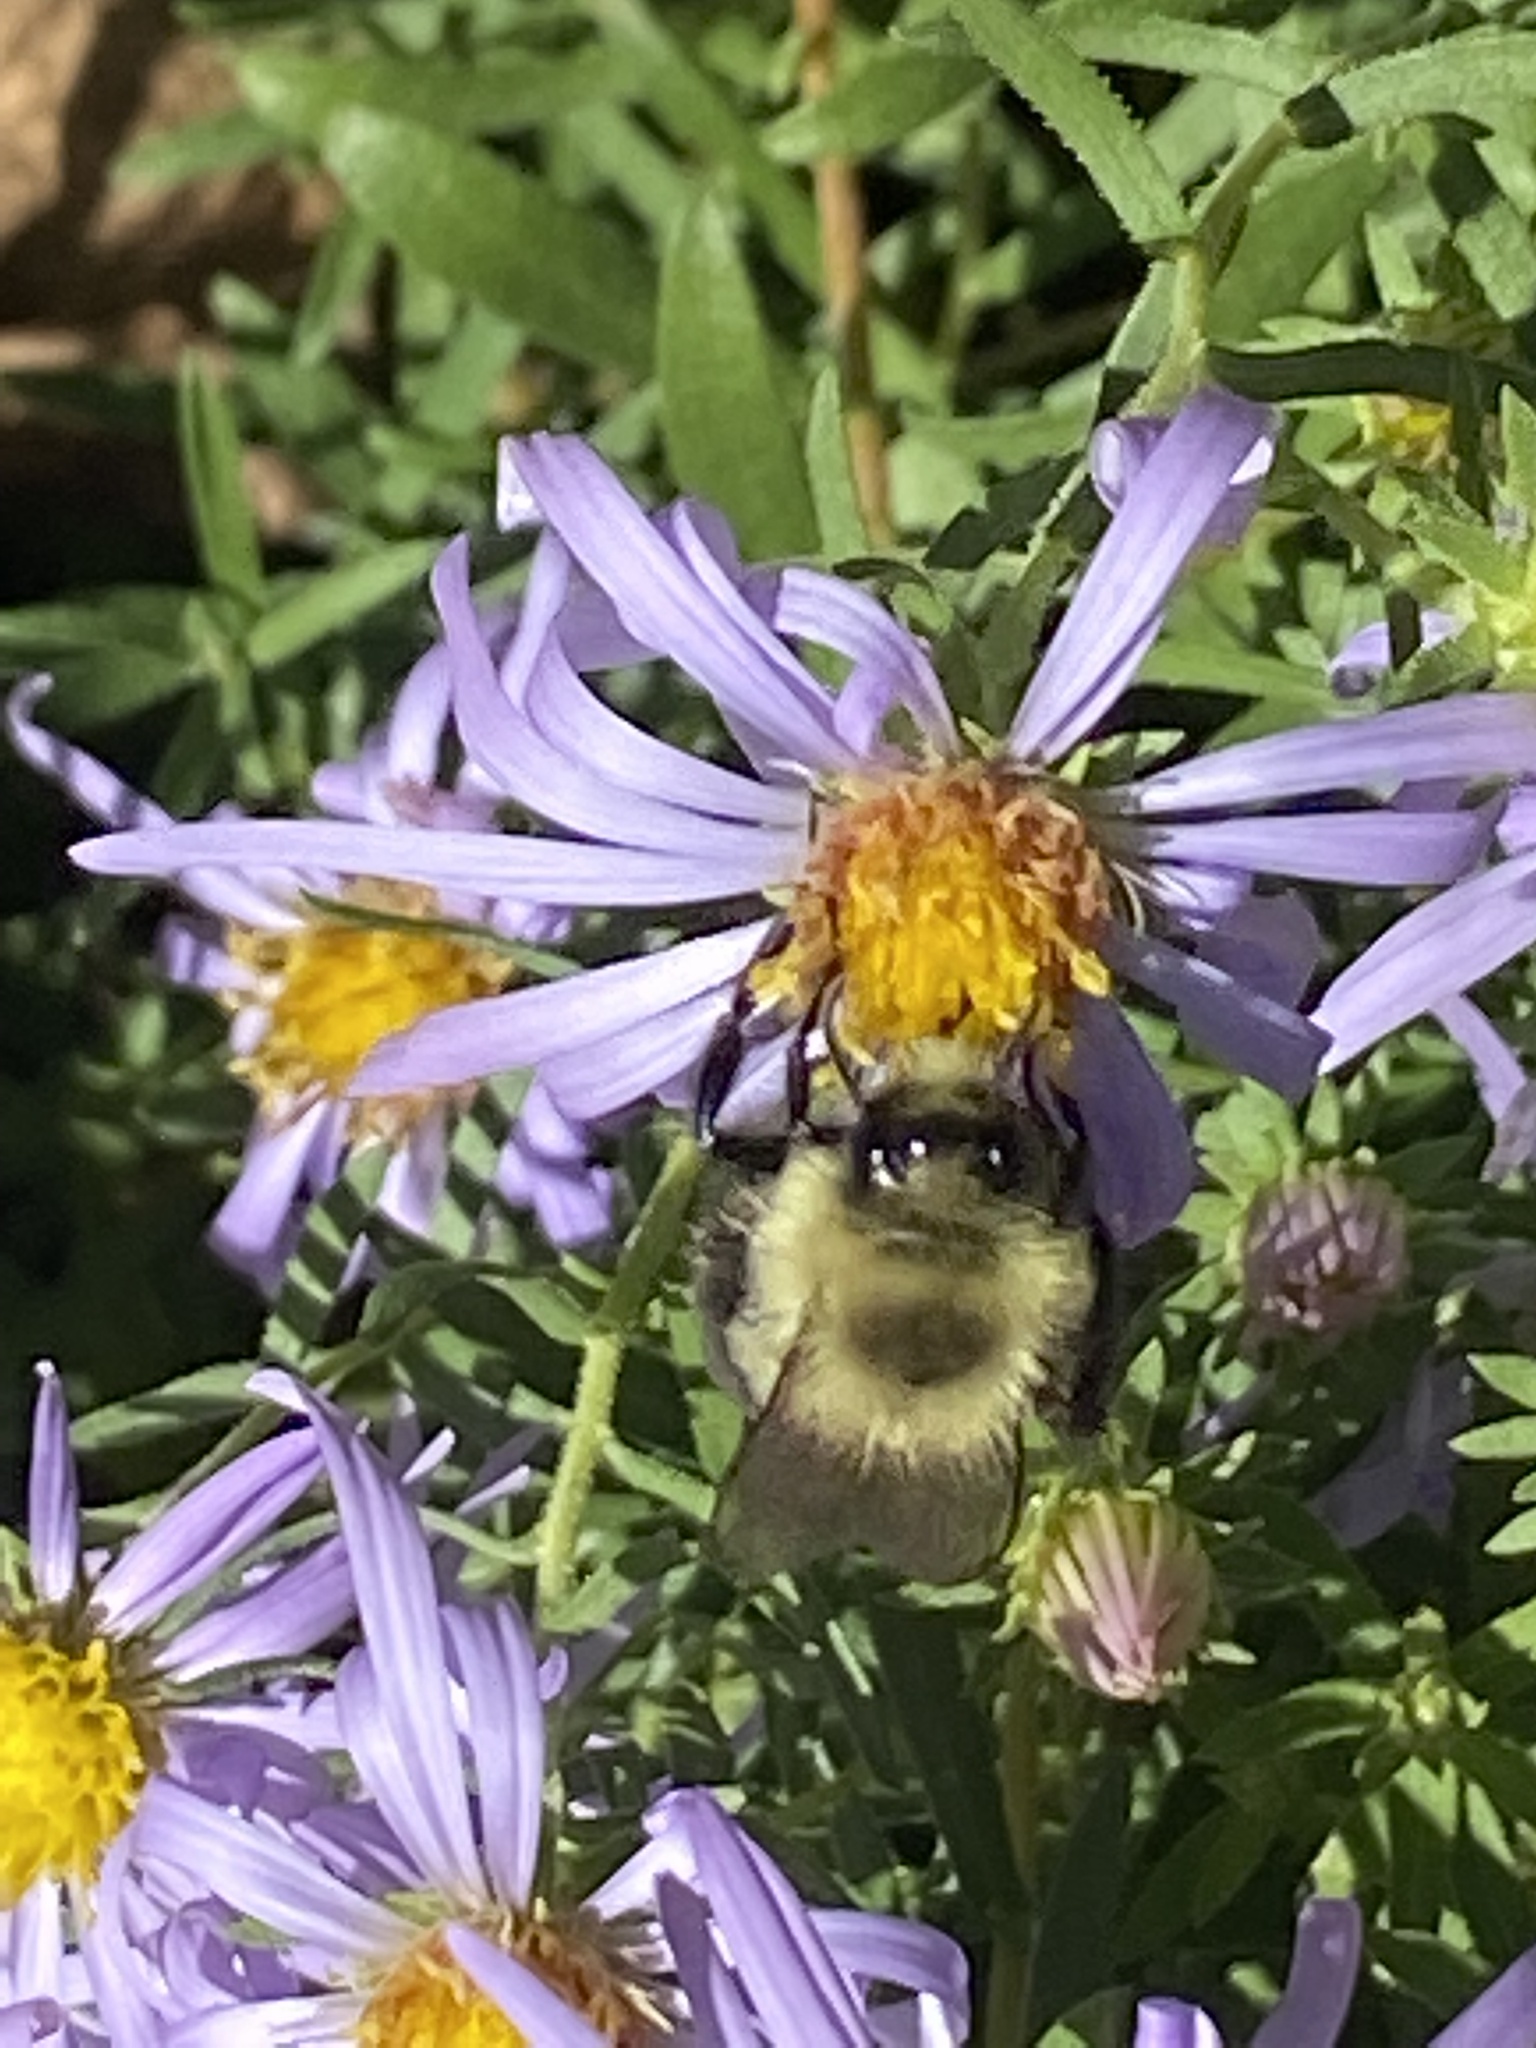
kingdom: Animalia
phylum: Arthropoda
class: Insecta
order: Hymenoptera
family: Apidae
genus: Bombus
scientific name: Bombus impatiens
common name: Common eastern bumble bee
